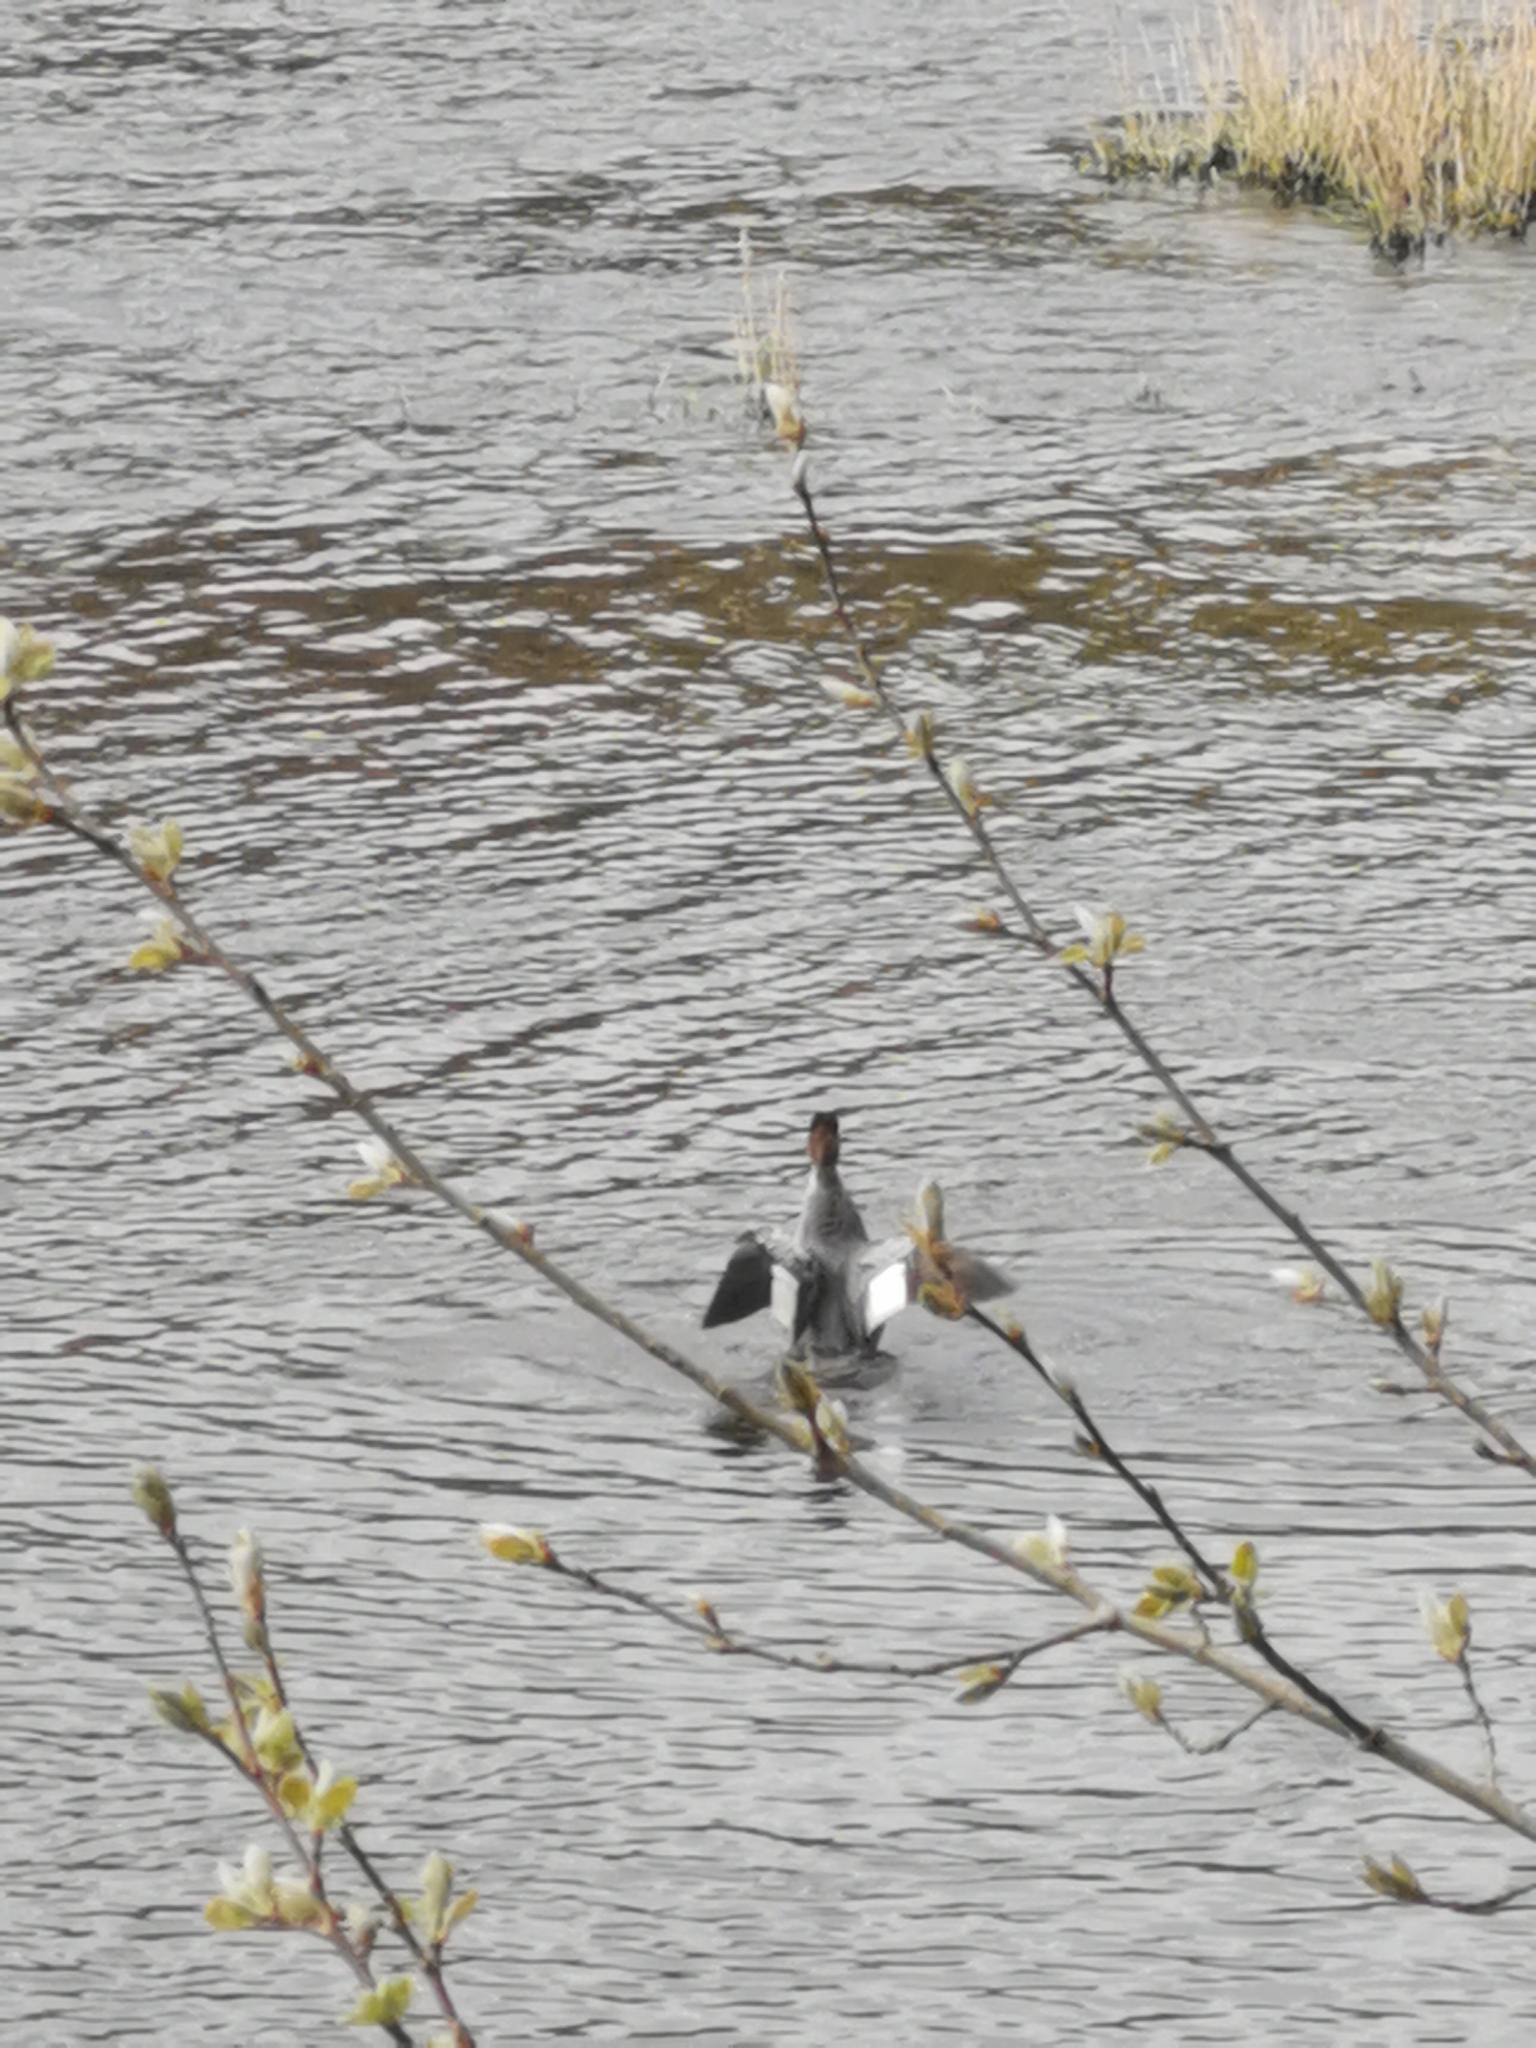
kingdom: Animalia
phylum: Chordata
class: Aves
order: Anseriformes
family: Anatidae
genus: Mergus
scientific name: Mergus merganser
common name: Common merganser
